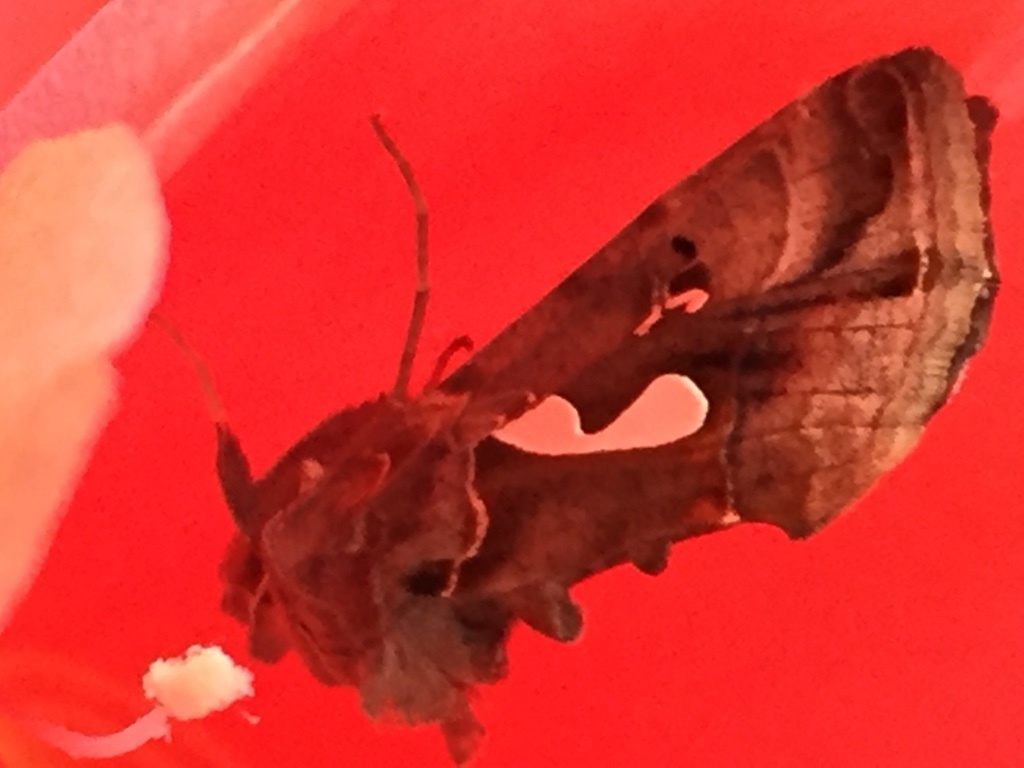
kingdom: Animalia
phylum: Arthropoda
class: Insecta
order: Lepidoptera
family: Noctuidae
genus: Megalographa
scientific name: Megalographa biloba
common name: Cutworm
